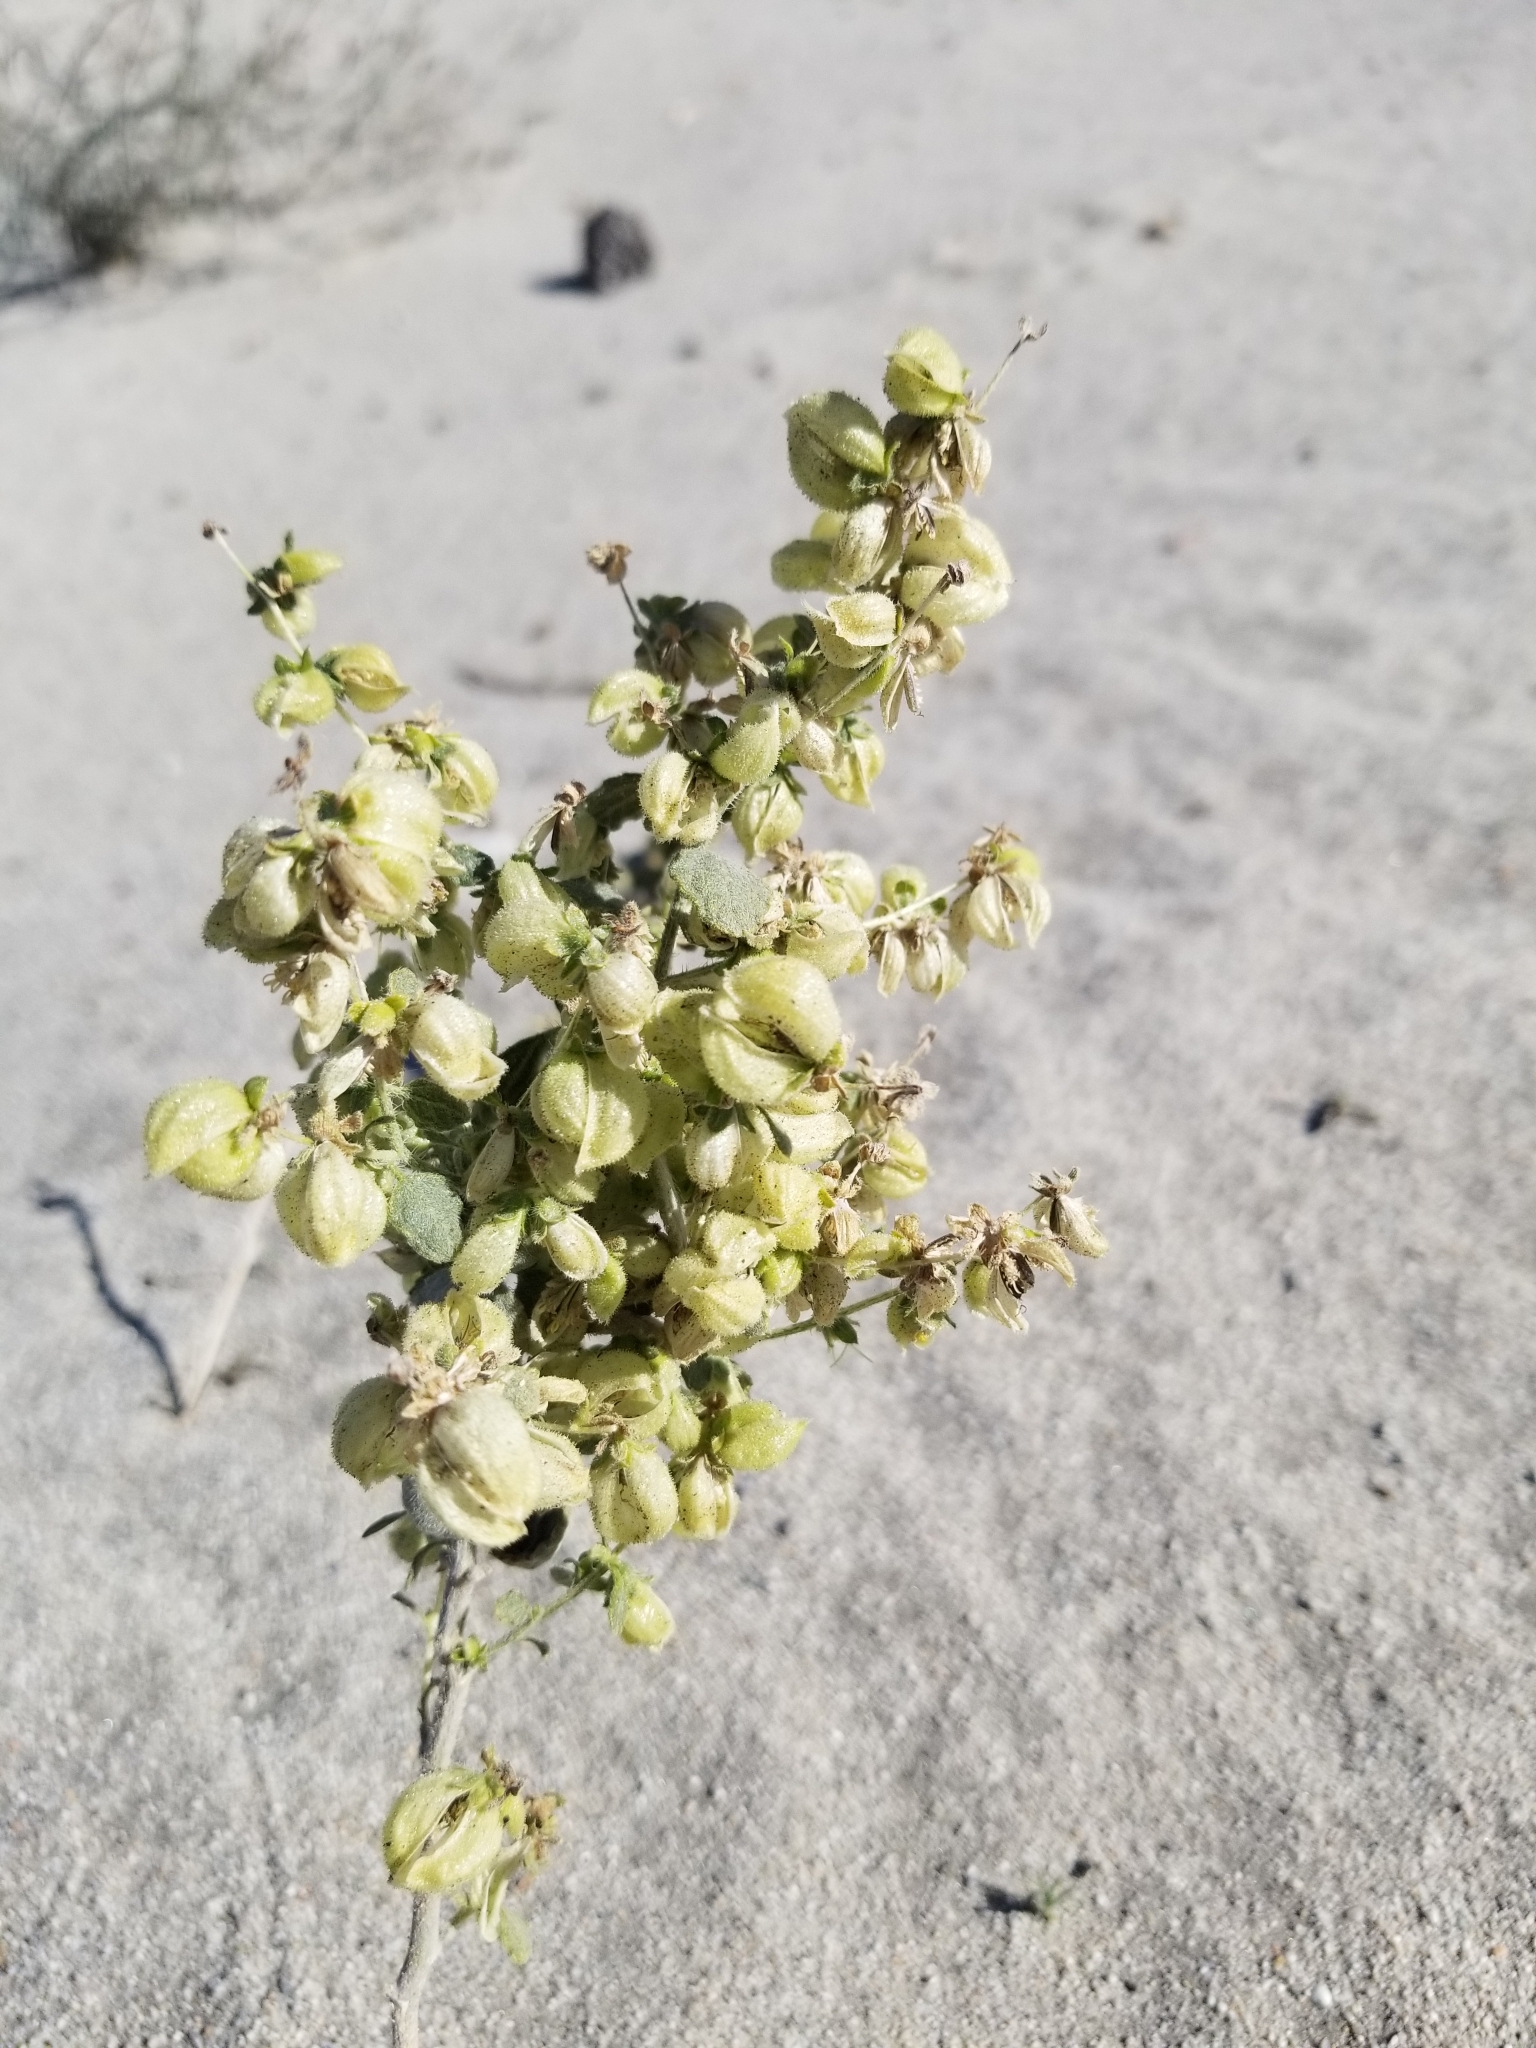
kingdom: Plantae
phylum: Tracheophyta
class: Magnoliopsida
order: Asterales
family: Asteraceae
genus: Dicoria
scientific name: Dicoria canescens
